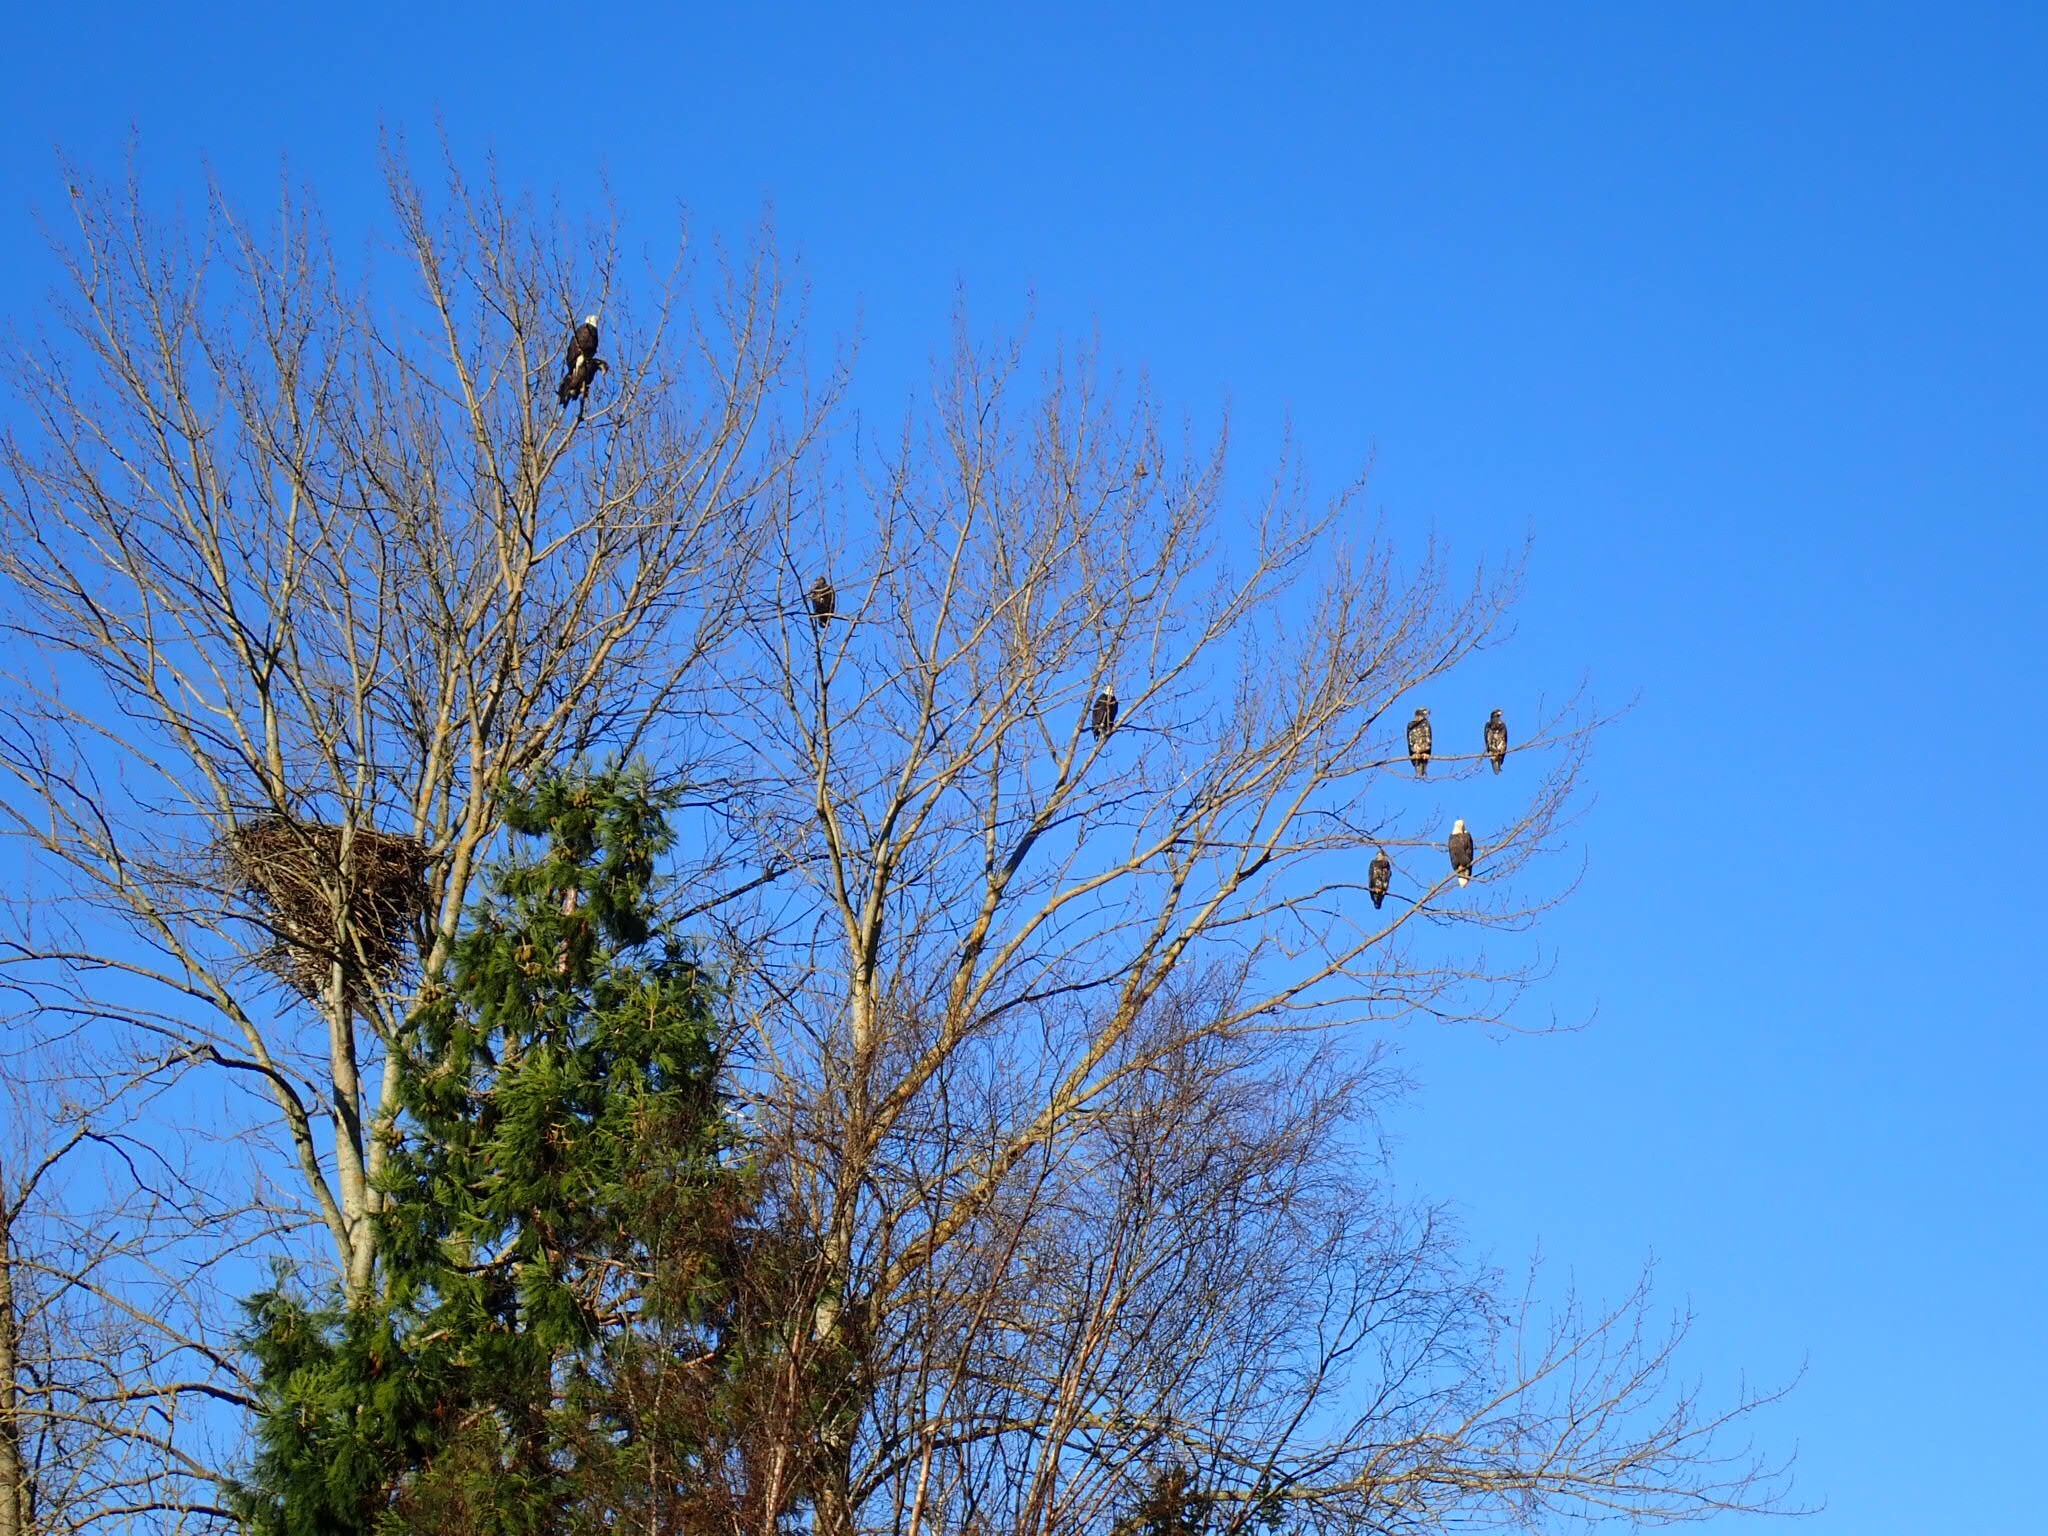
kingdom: Animalia
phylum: Chordata
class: Aves
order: Accipitriformes
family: Accipitridae
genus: Haliaeetus
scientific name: Haliaeetus leucocephalus
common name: Bald eagle
